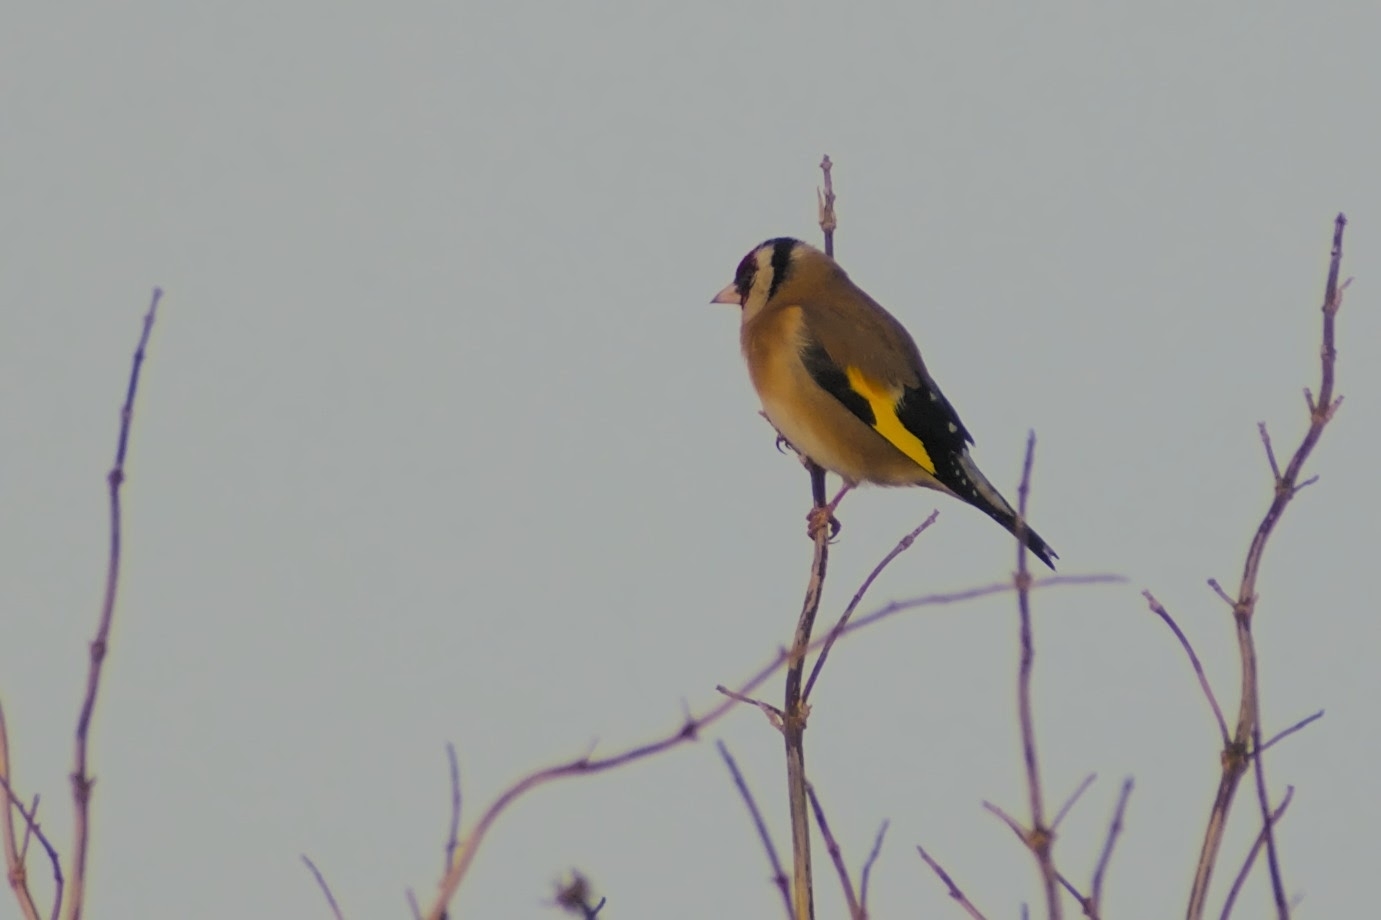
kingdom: Animalia
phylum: Chordata
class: Aves
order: Passeriformes
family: Fringillidae
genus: Carduelis
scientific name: Carduelis carduelis
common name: European goldfinch
